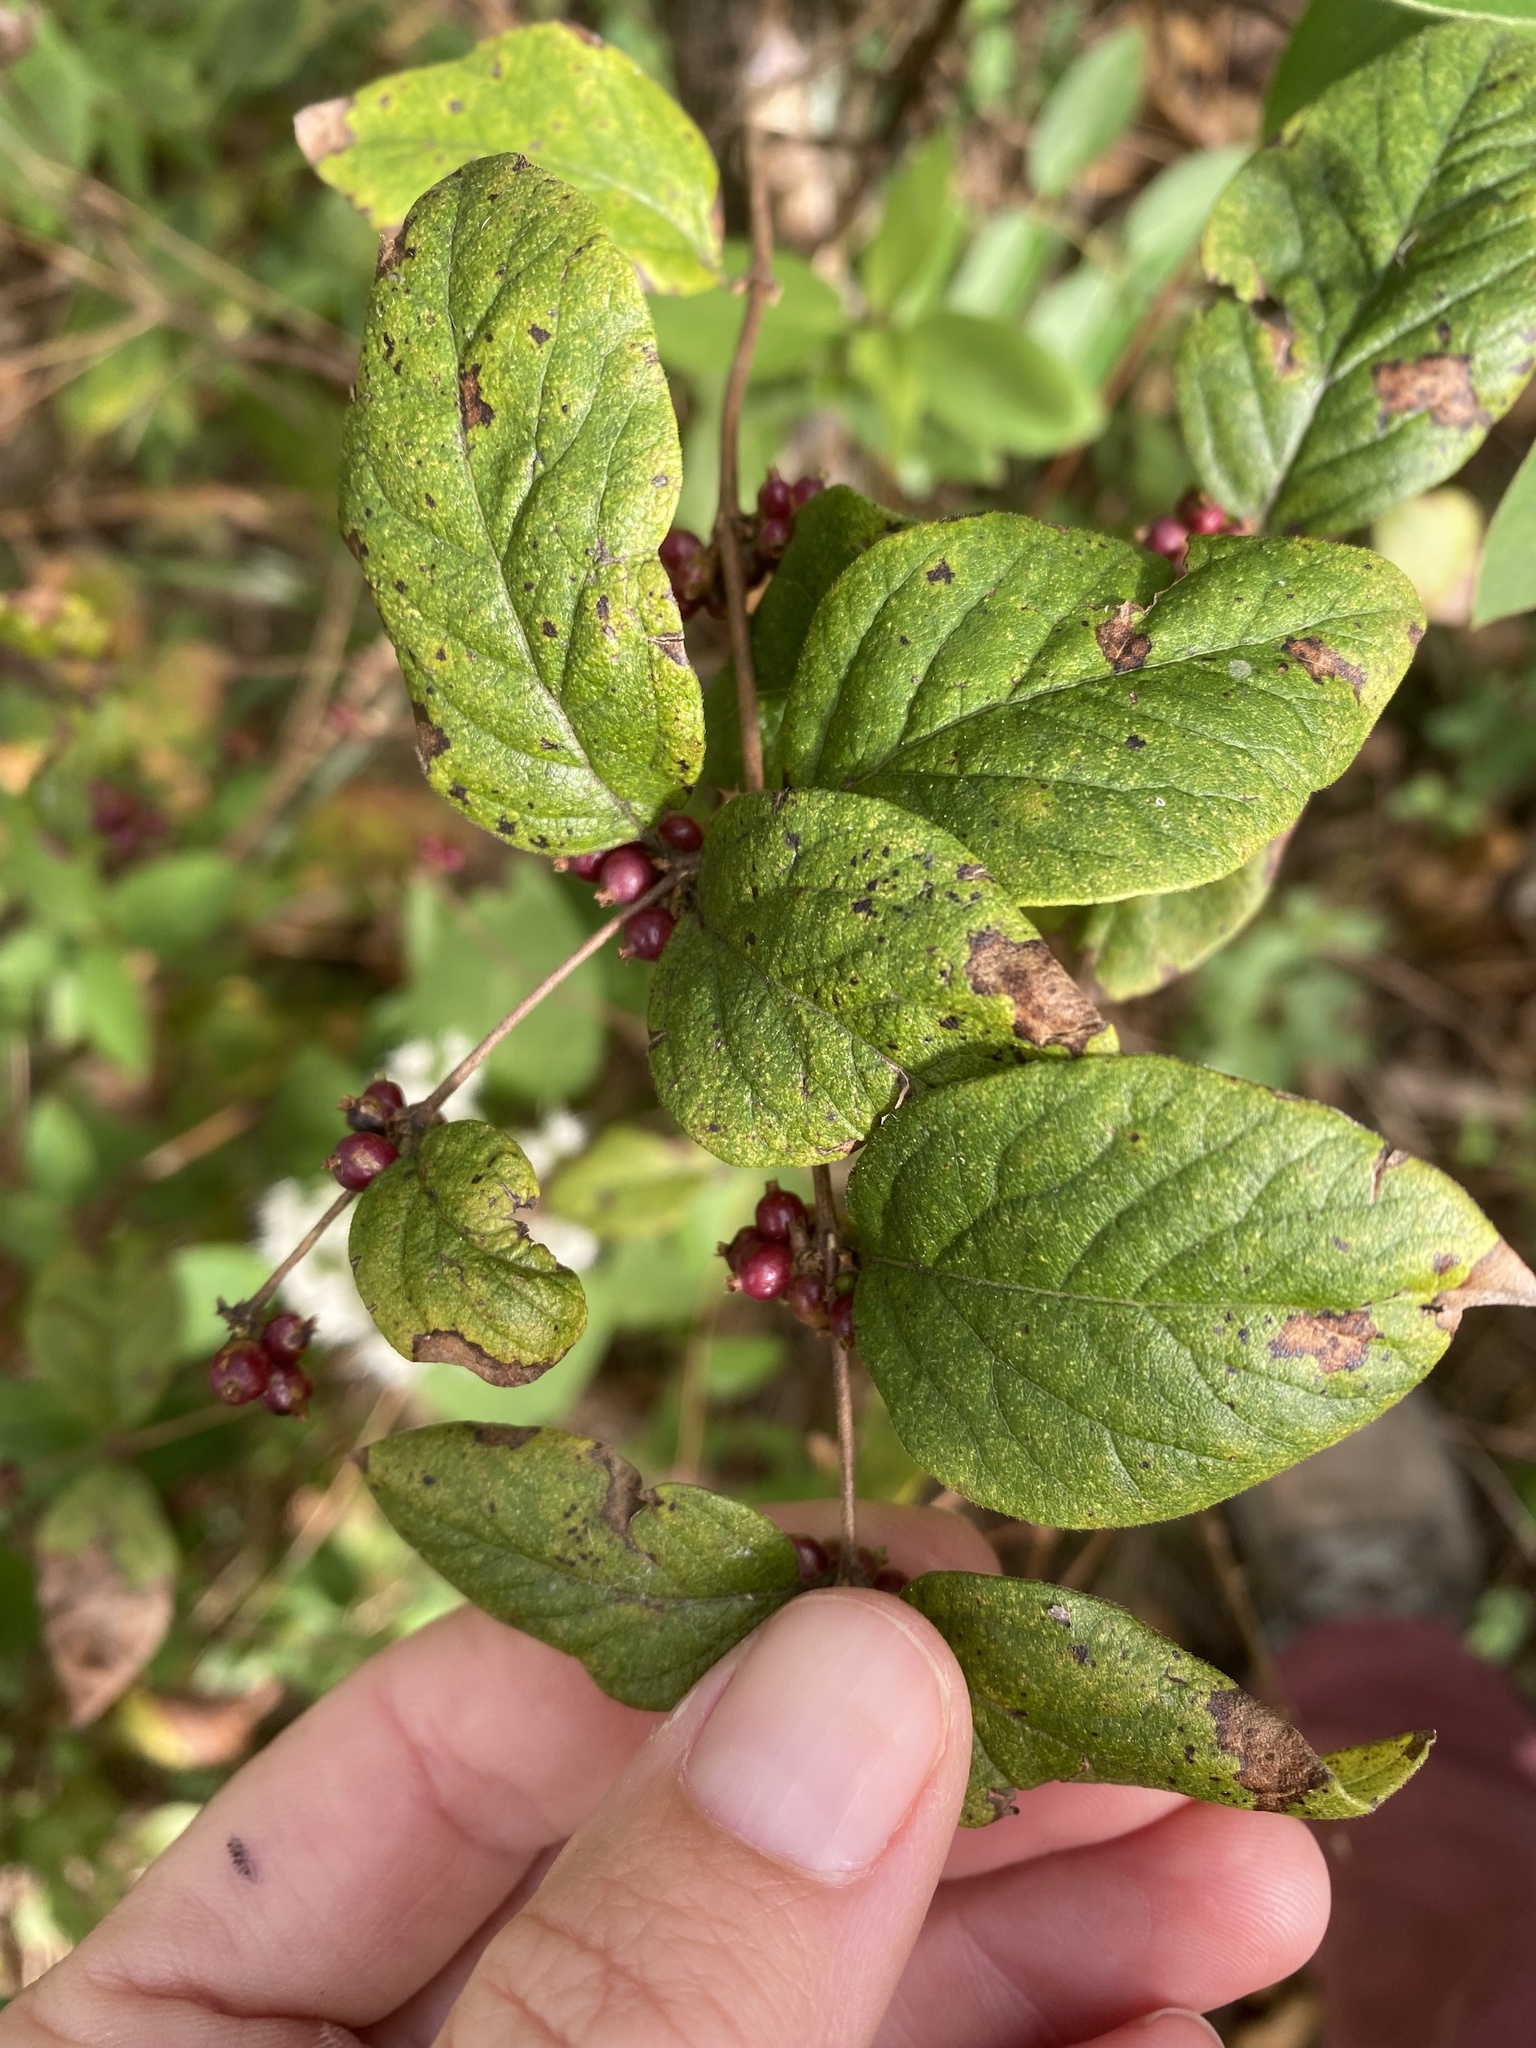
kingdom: Plantae
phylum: Tracheophyta
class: Magnoliopsida
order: Dipsacales
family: Caprifoliaceae
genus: Symphoricarpos
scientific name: Symphoricarpos orbiculatus
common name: Coralberry
